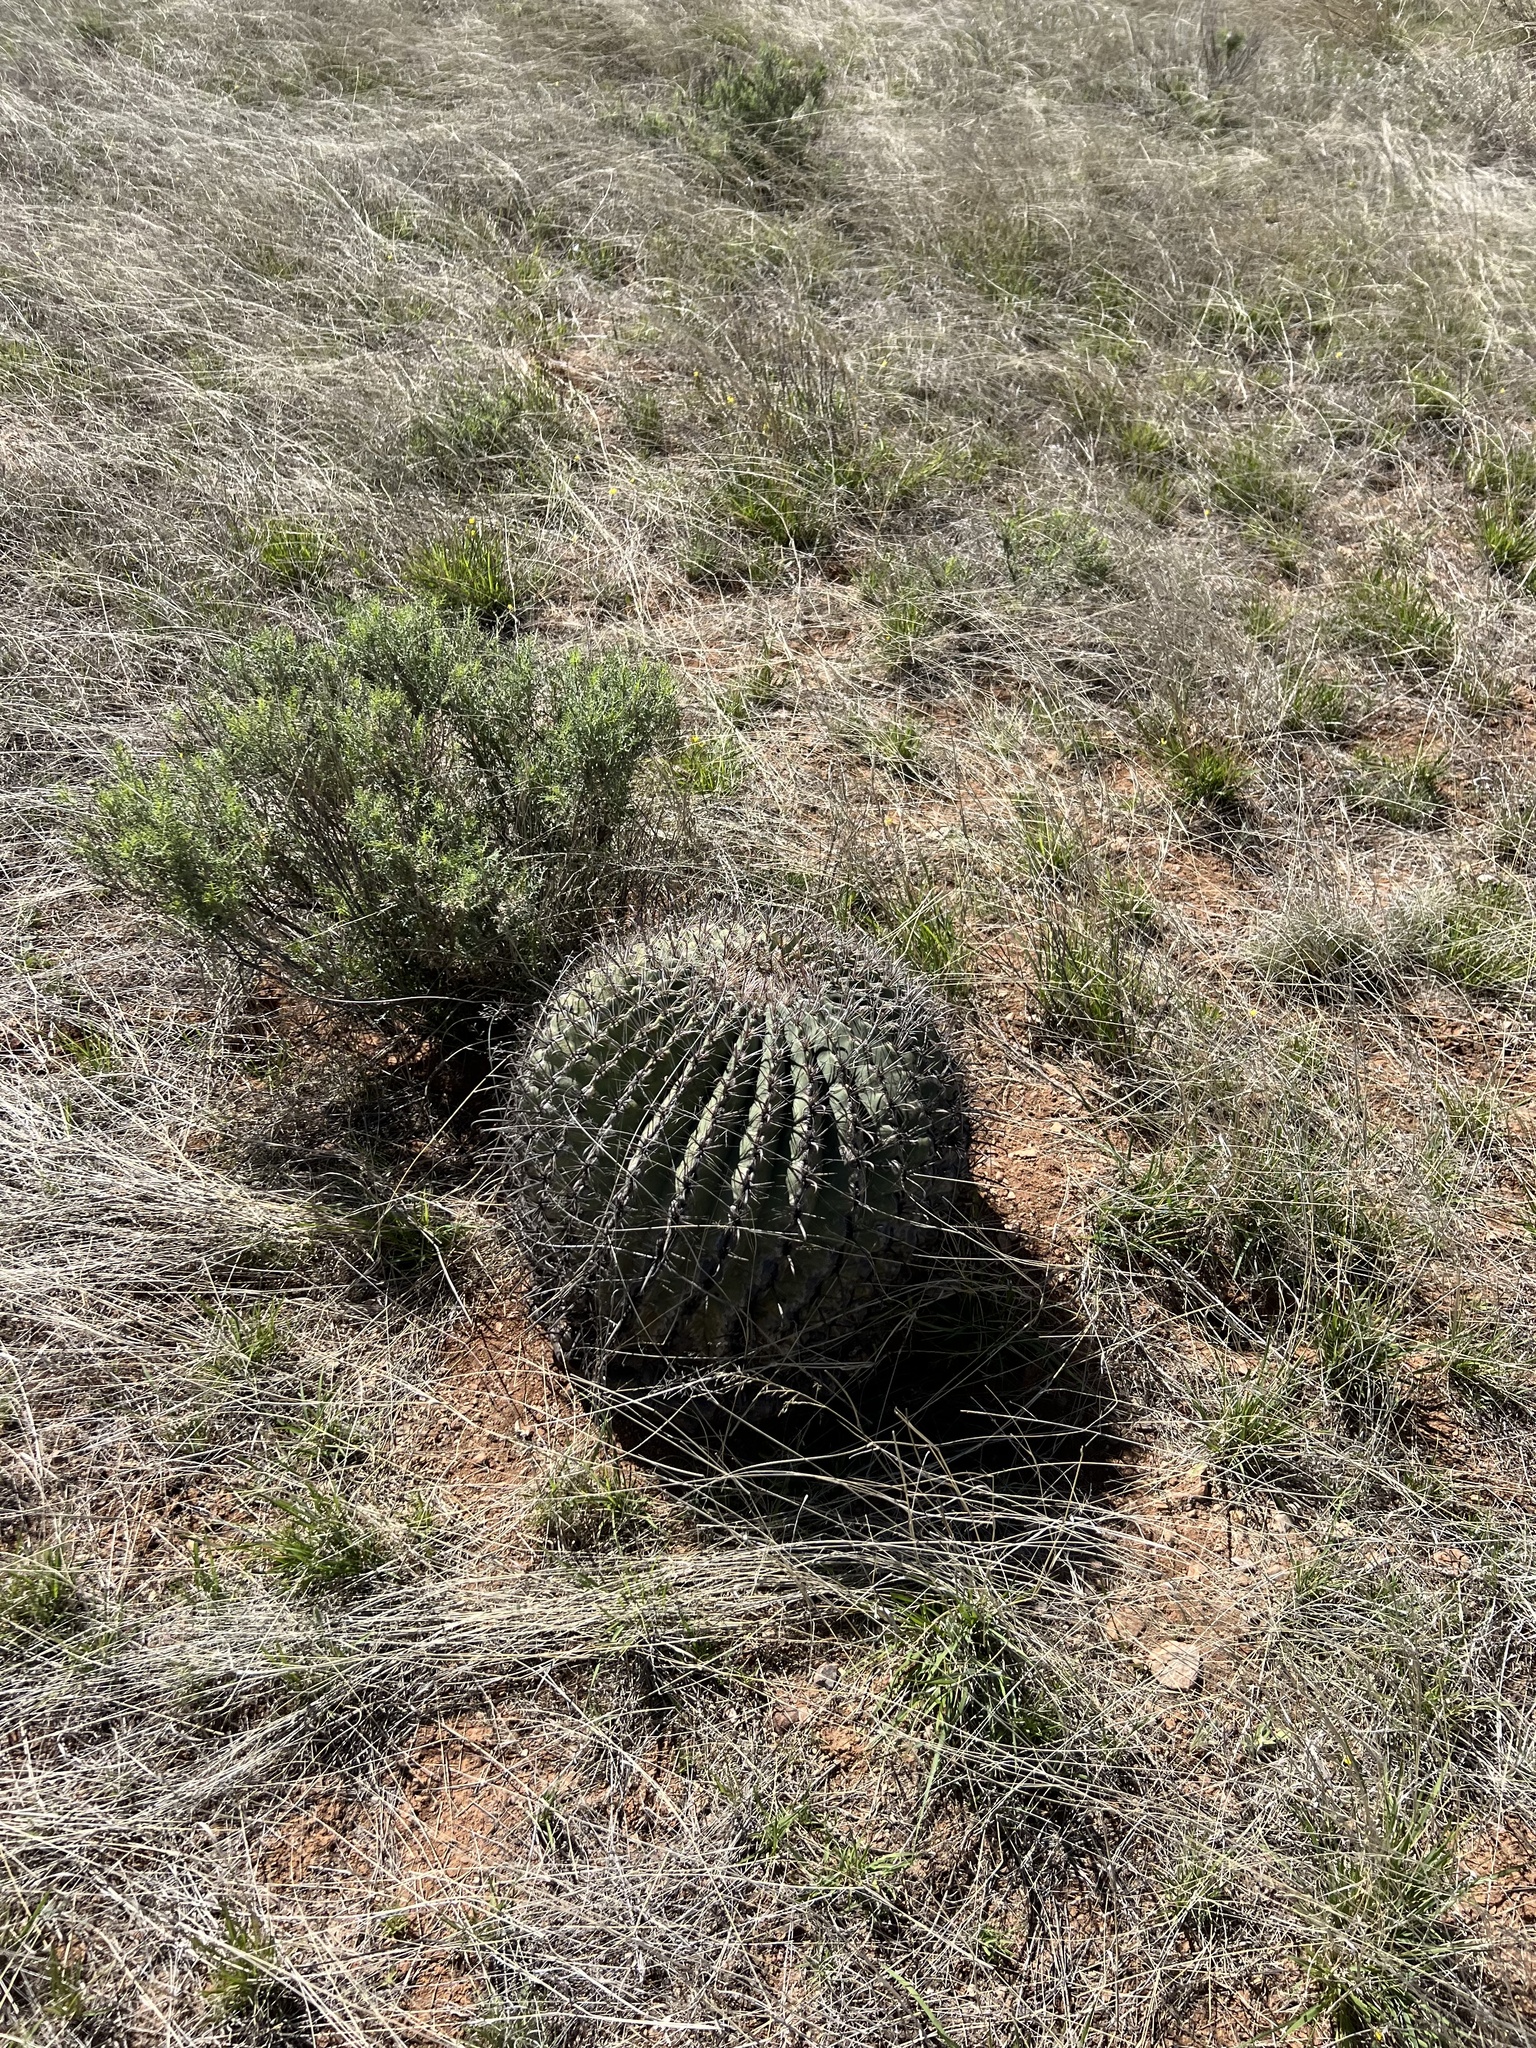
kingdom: Plantae
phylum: Tracheophyta
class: Magnoliopsida
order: Caryophyllales
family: Cactaceae
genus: Ferocactus
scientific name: Ferocactus wislizeni
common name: Candy barrel cactus
